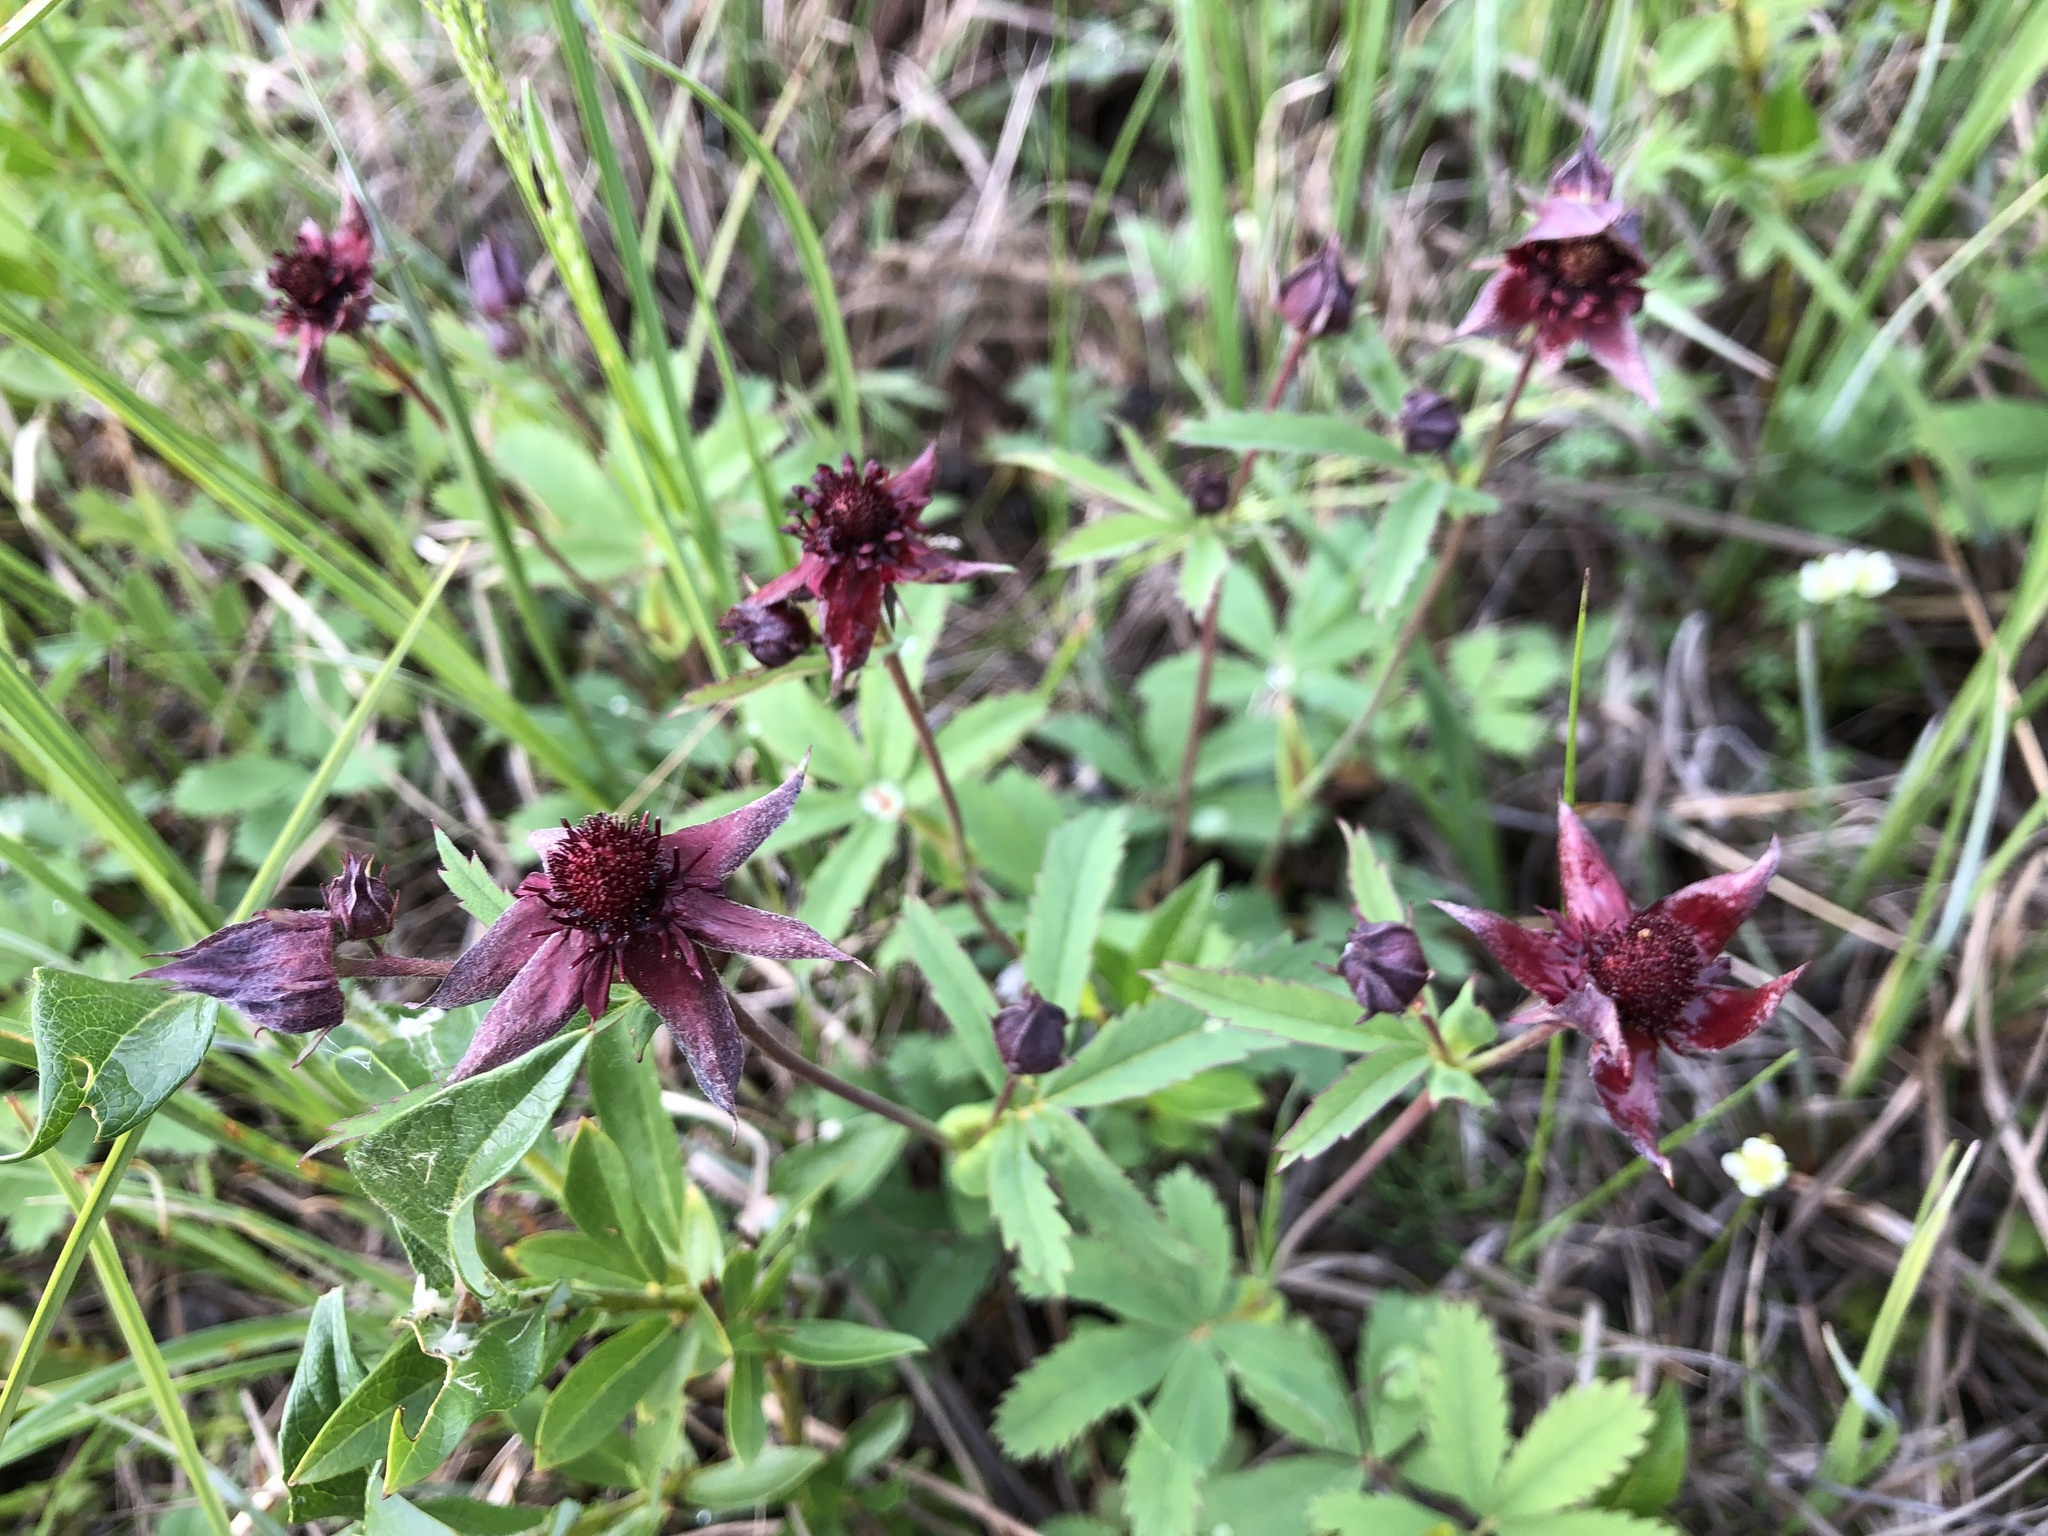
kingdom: Plantae
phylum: Tracheophyta
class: Magnoliopsida
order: Rosales
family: Rosaceae
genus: Comarum
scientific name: Comarum palustre
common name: Marsh cinquefoil
